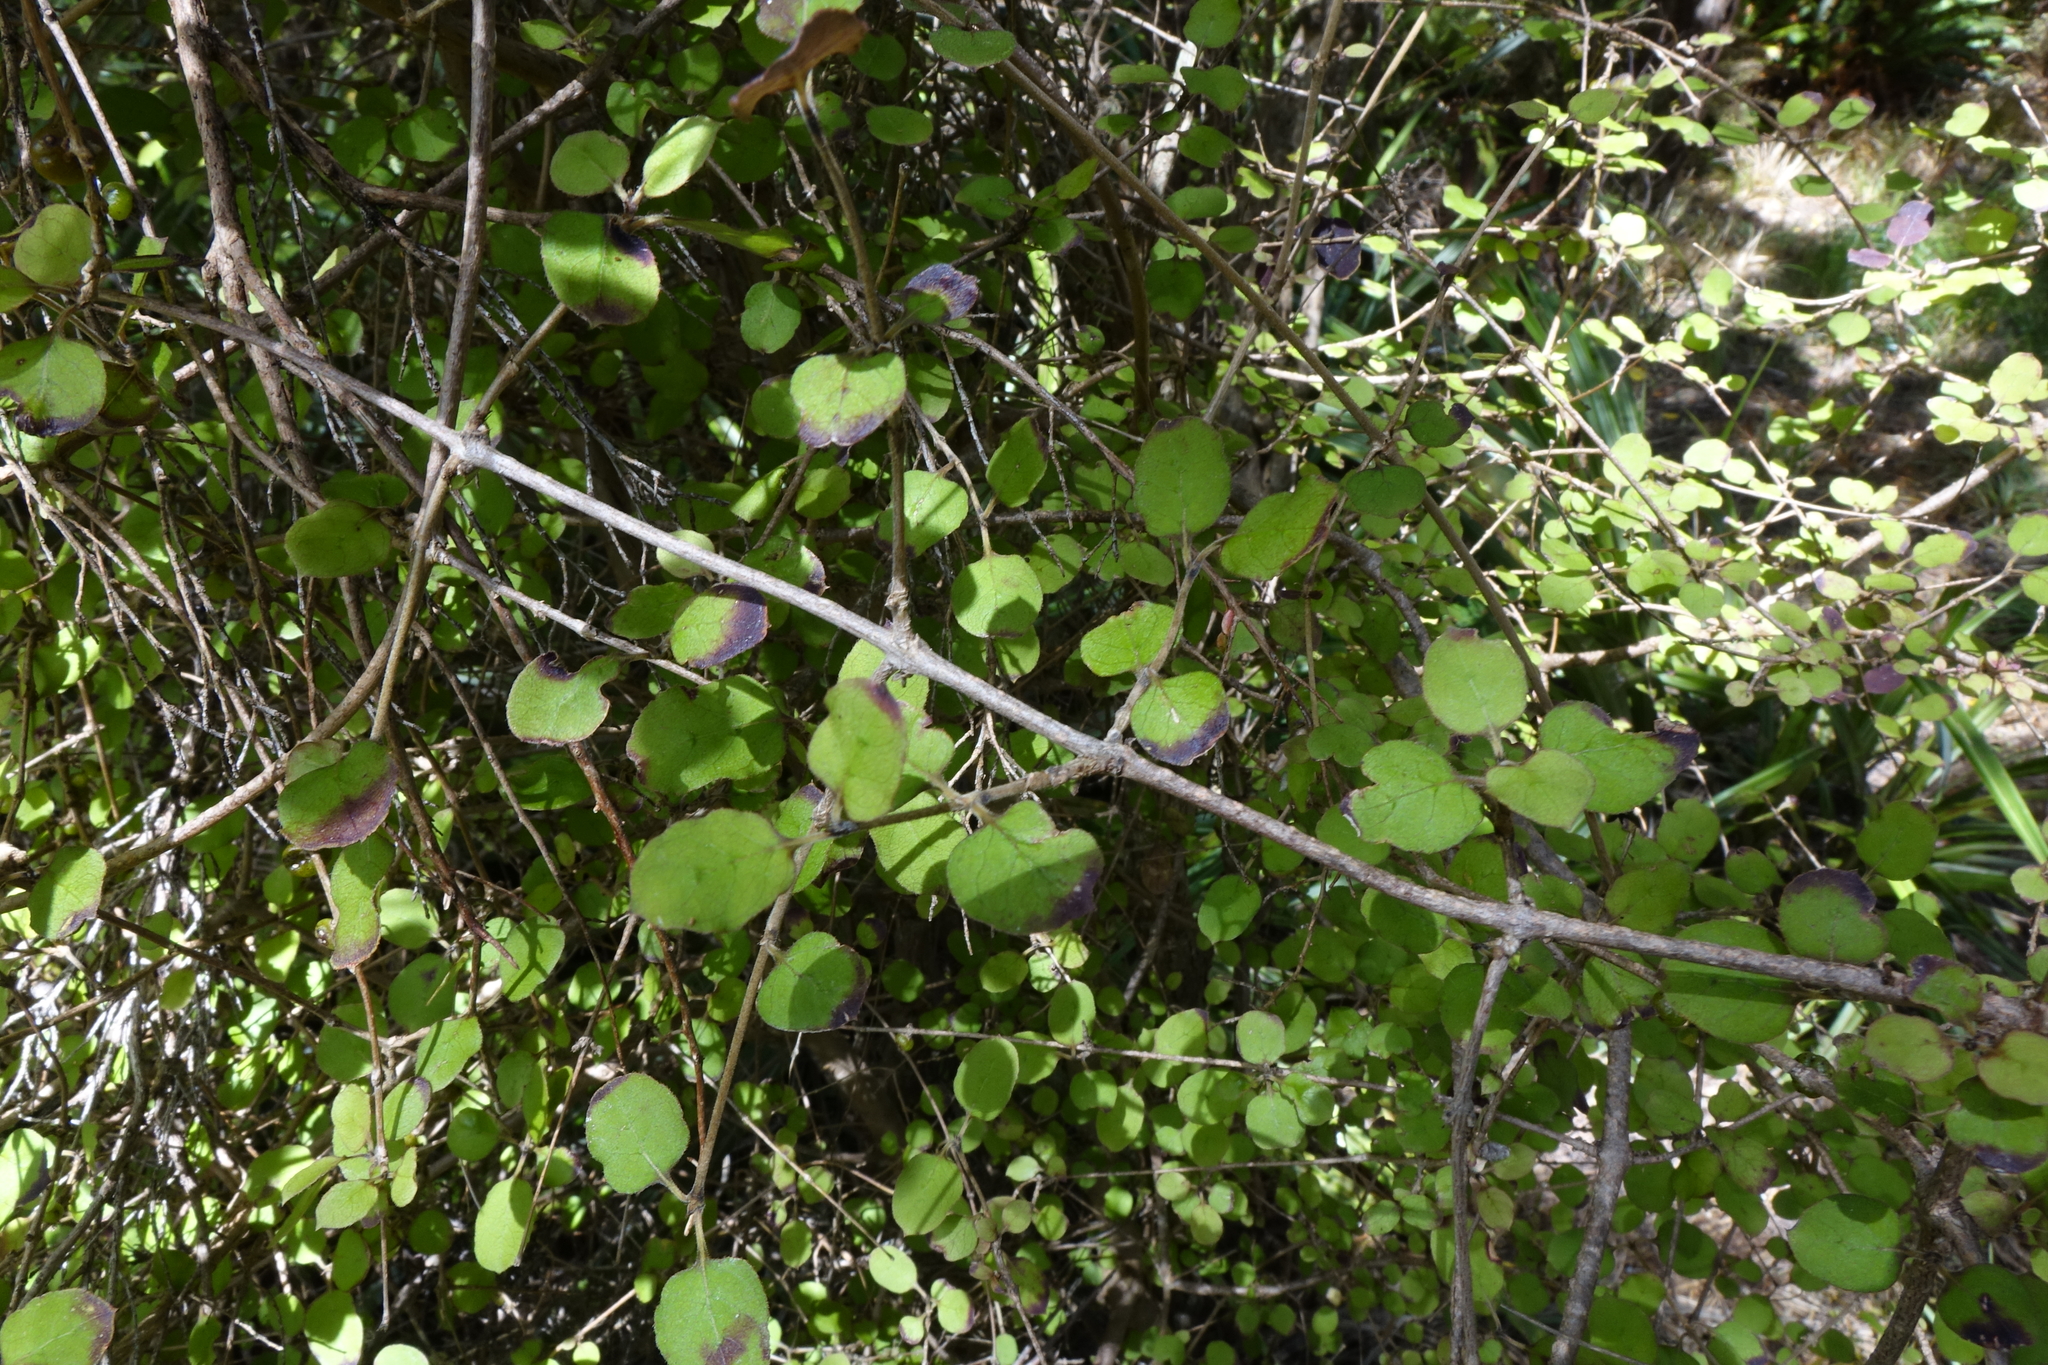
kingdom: Plantae
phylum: Tracheophyta
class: Magnoliopsida
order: Gentianales
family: Rubiaceae
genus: Coprosma
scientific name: Coprosma rotundifolia
